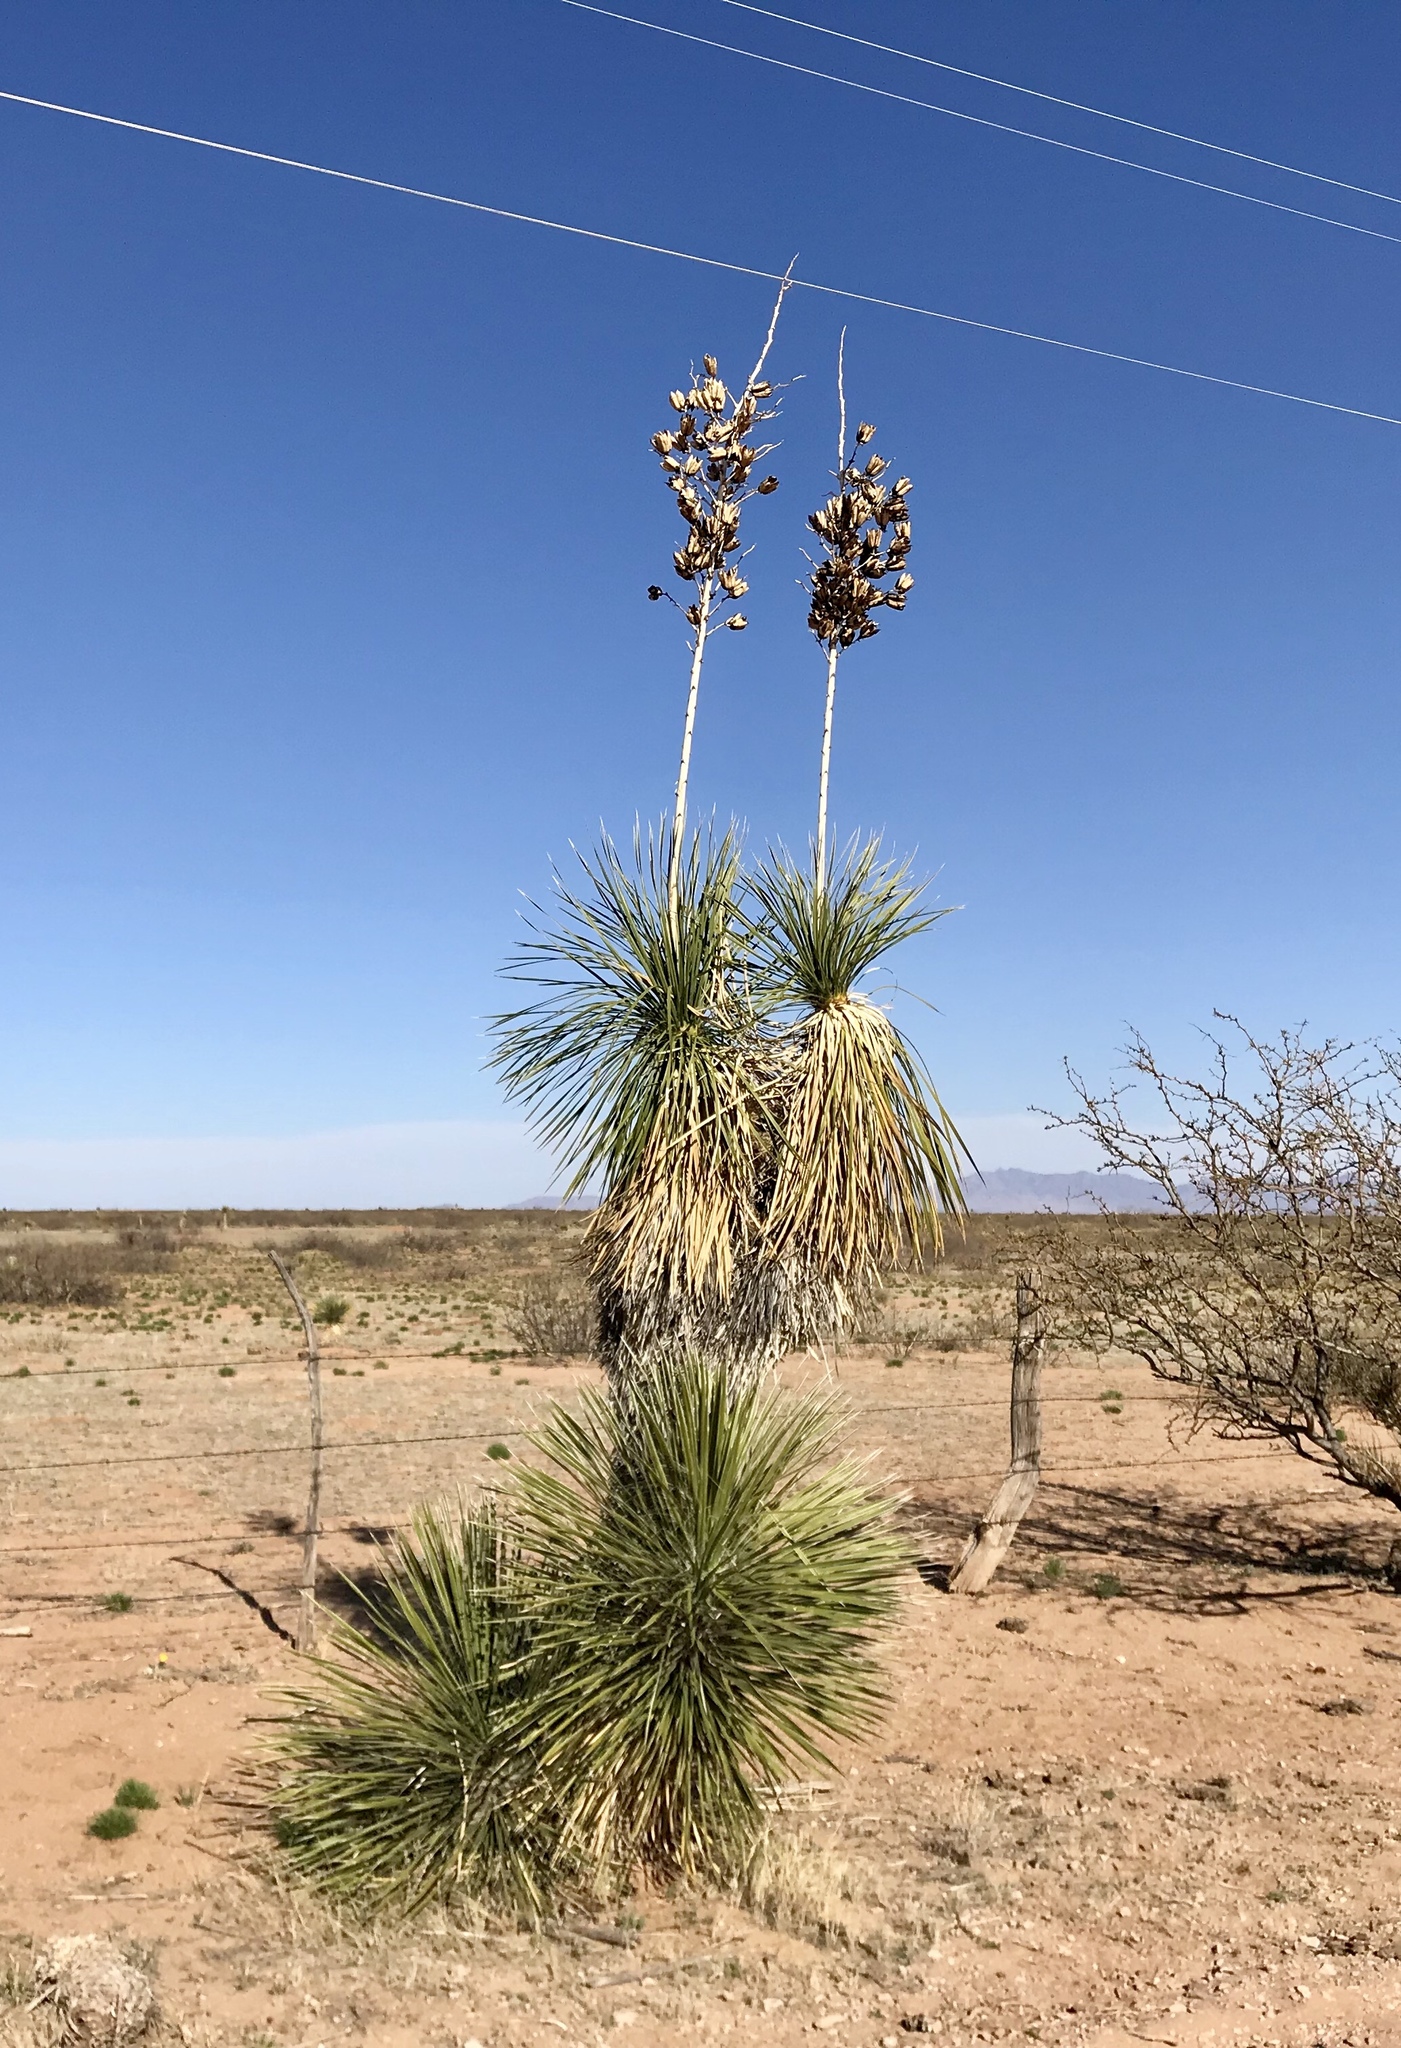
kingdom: Plantae
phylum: Tracheophyta
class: Liliopsida
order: Asparagales
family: Asparagaceae
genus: Yucca
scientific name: Yucca elata
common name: Palmella
